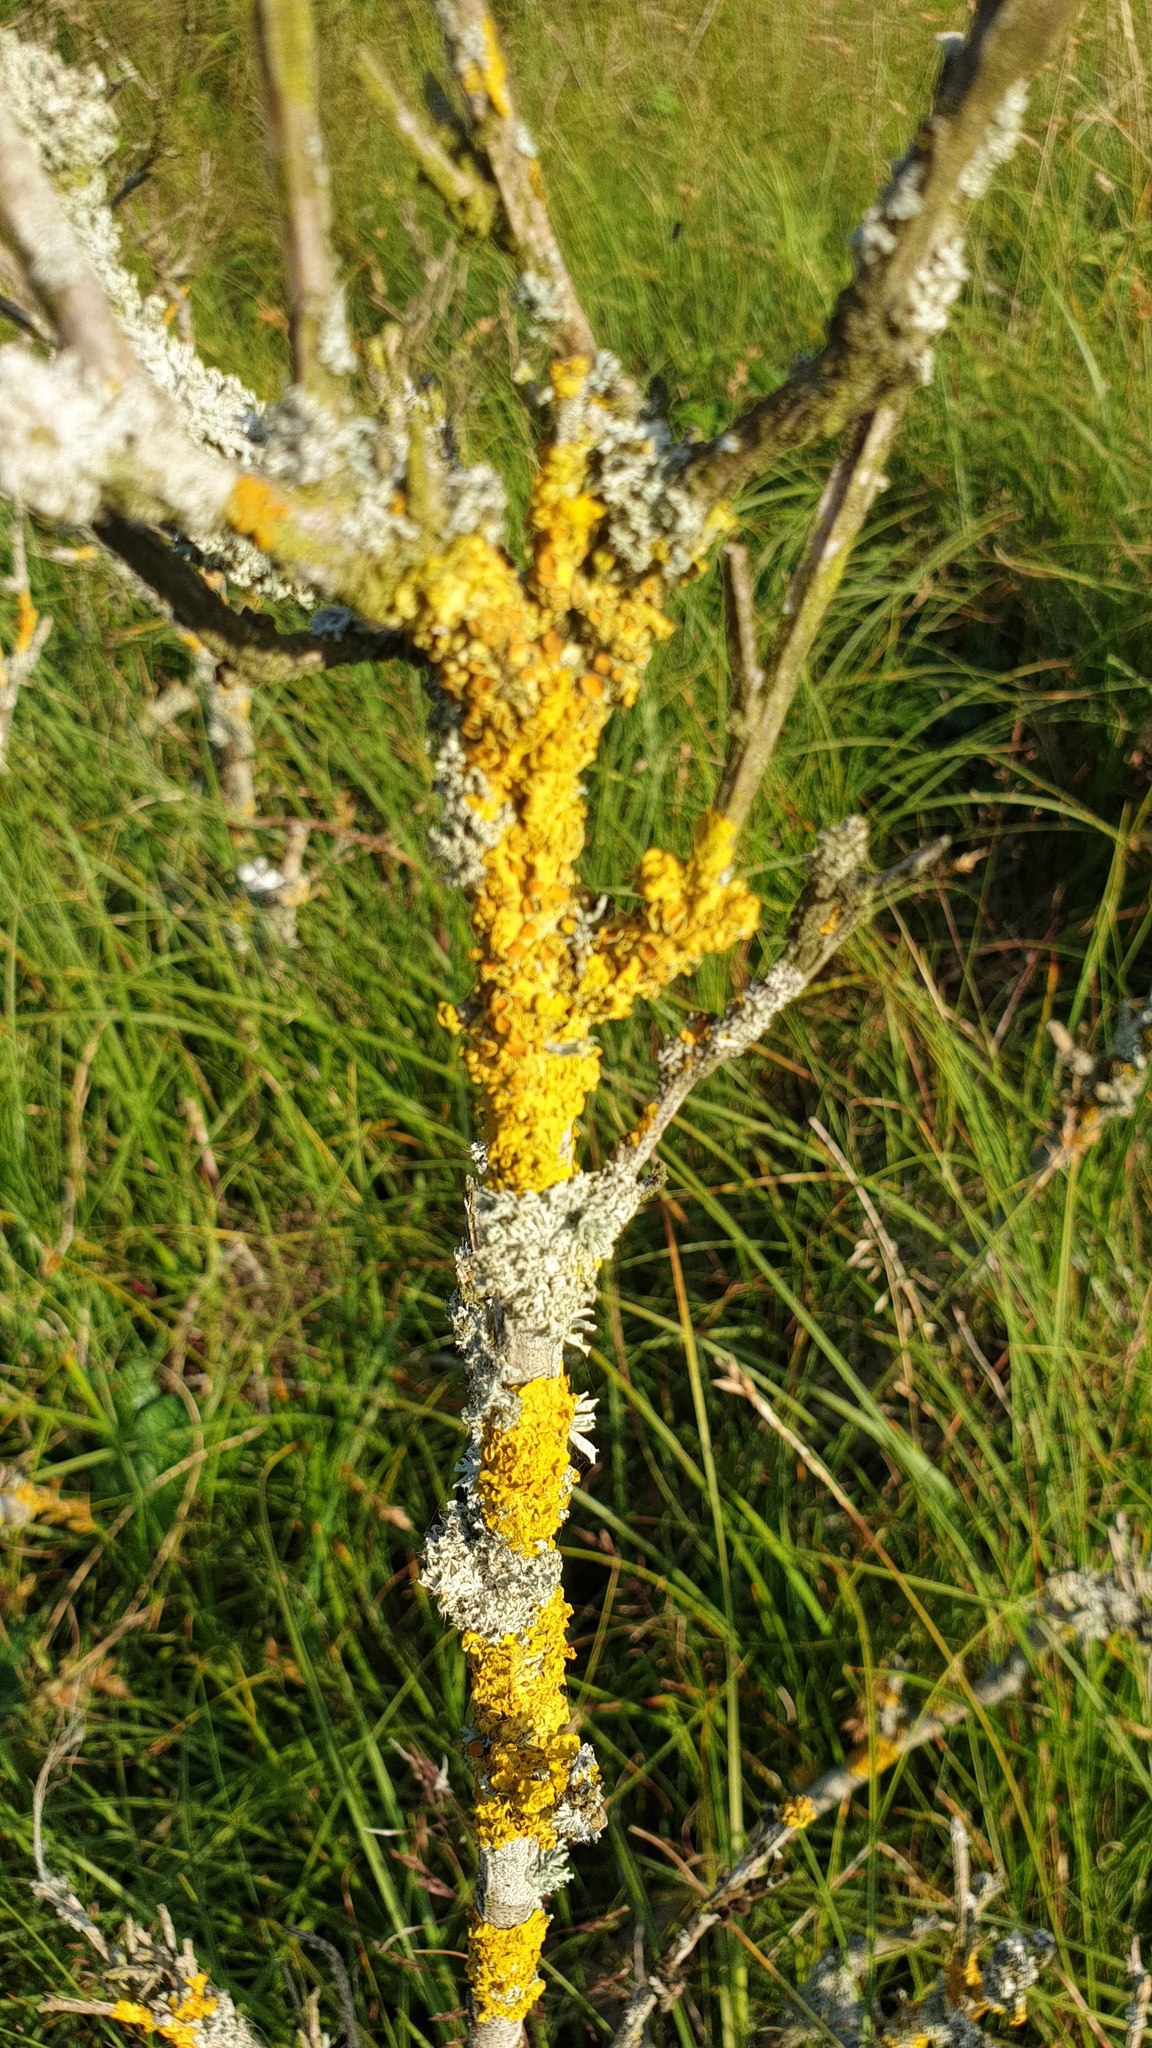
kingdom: Fungi
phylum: Ascomycota
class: Lecanoromycetes
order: Teloschistales
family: Teloschistaceae
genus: Xanthoria
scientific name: Xanthoria parietina
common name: Common orange lichen
